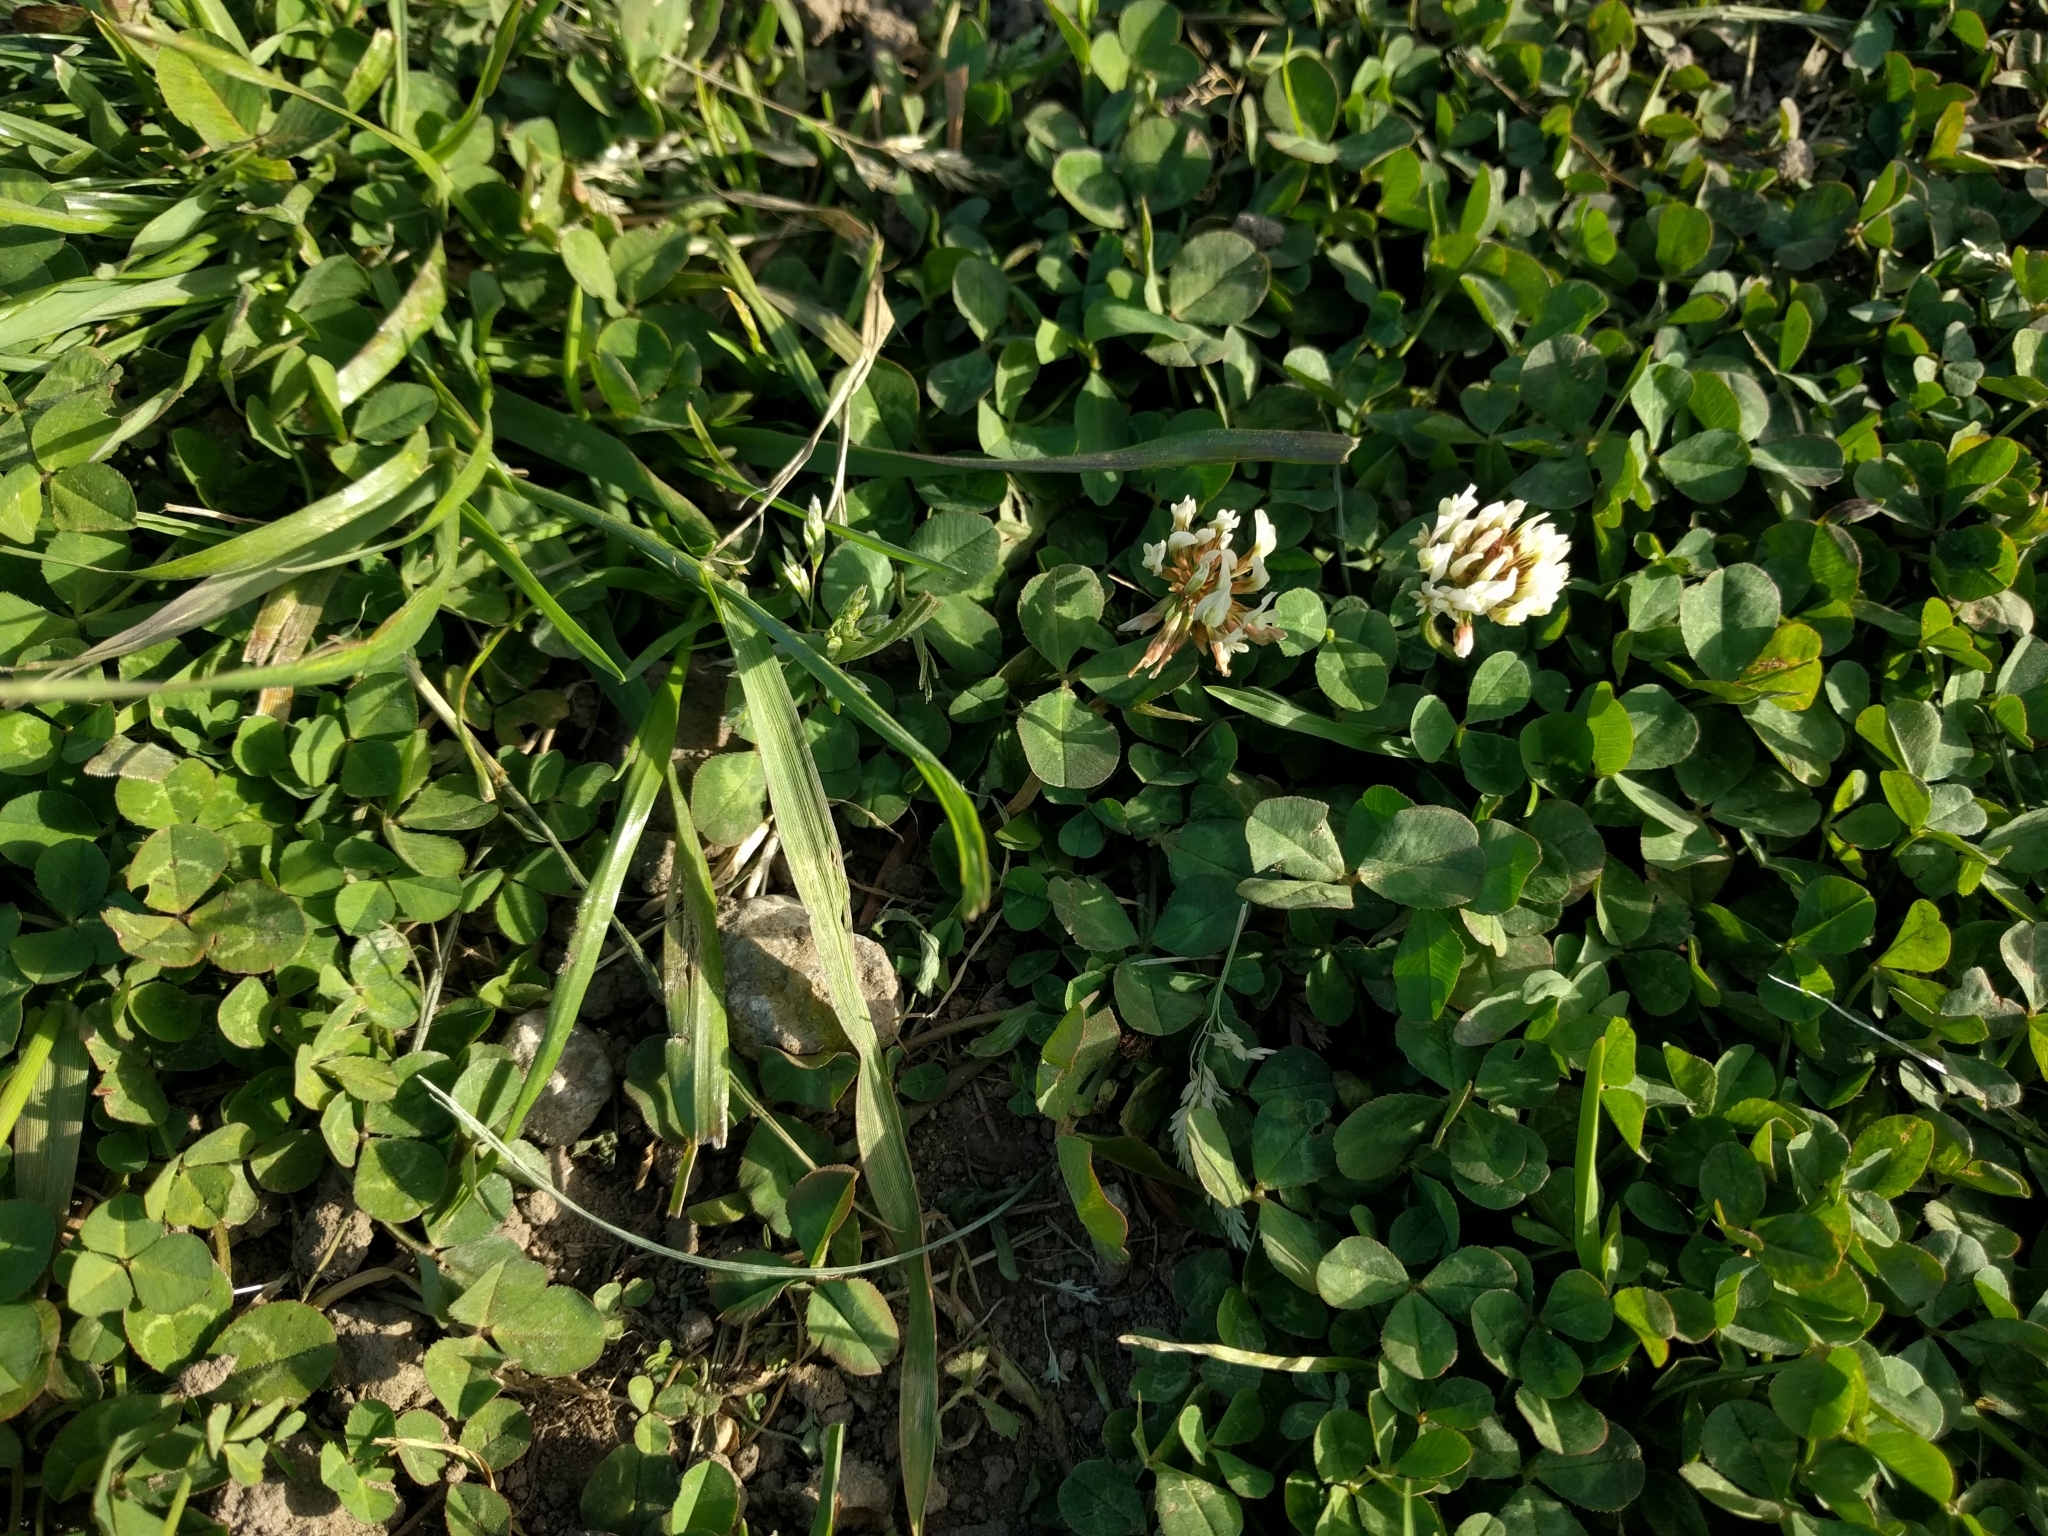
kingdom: Plantae
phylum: Tracheophyta
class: Magnoliopsida
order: Fabales
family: Fabaceae
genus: Trifolium
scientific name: Trifolium repens
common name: White clover
